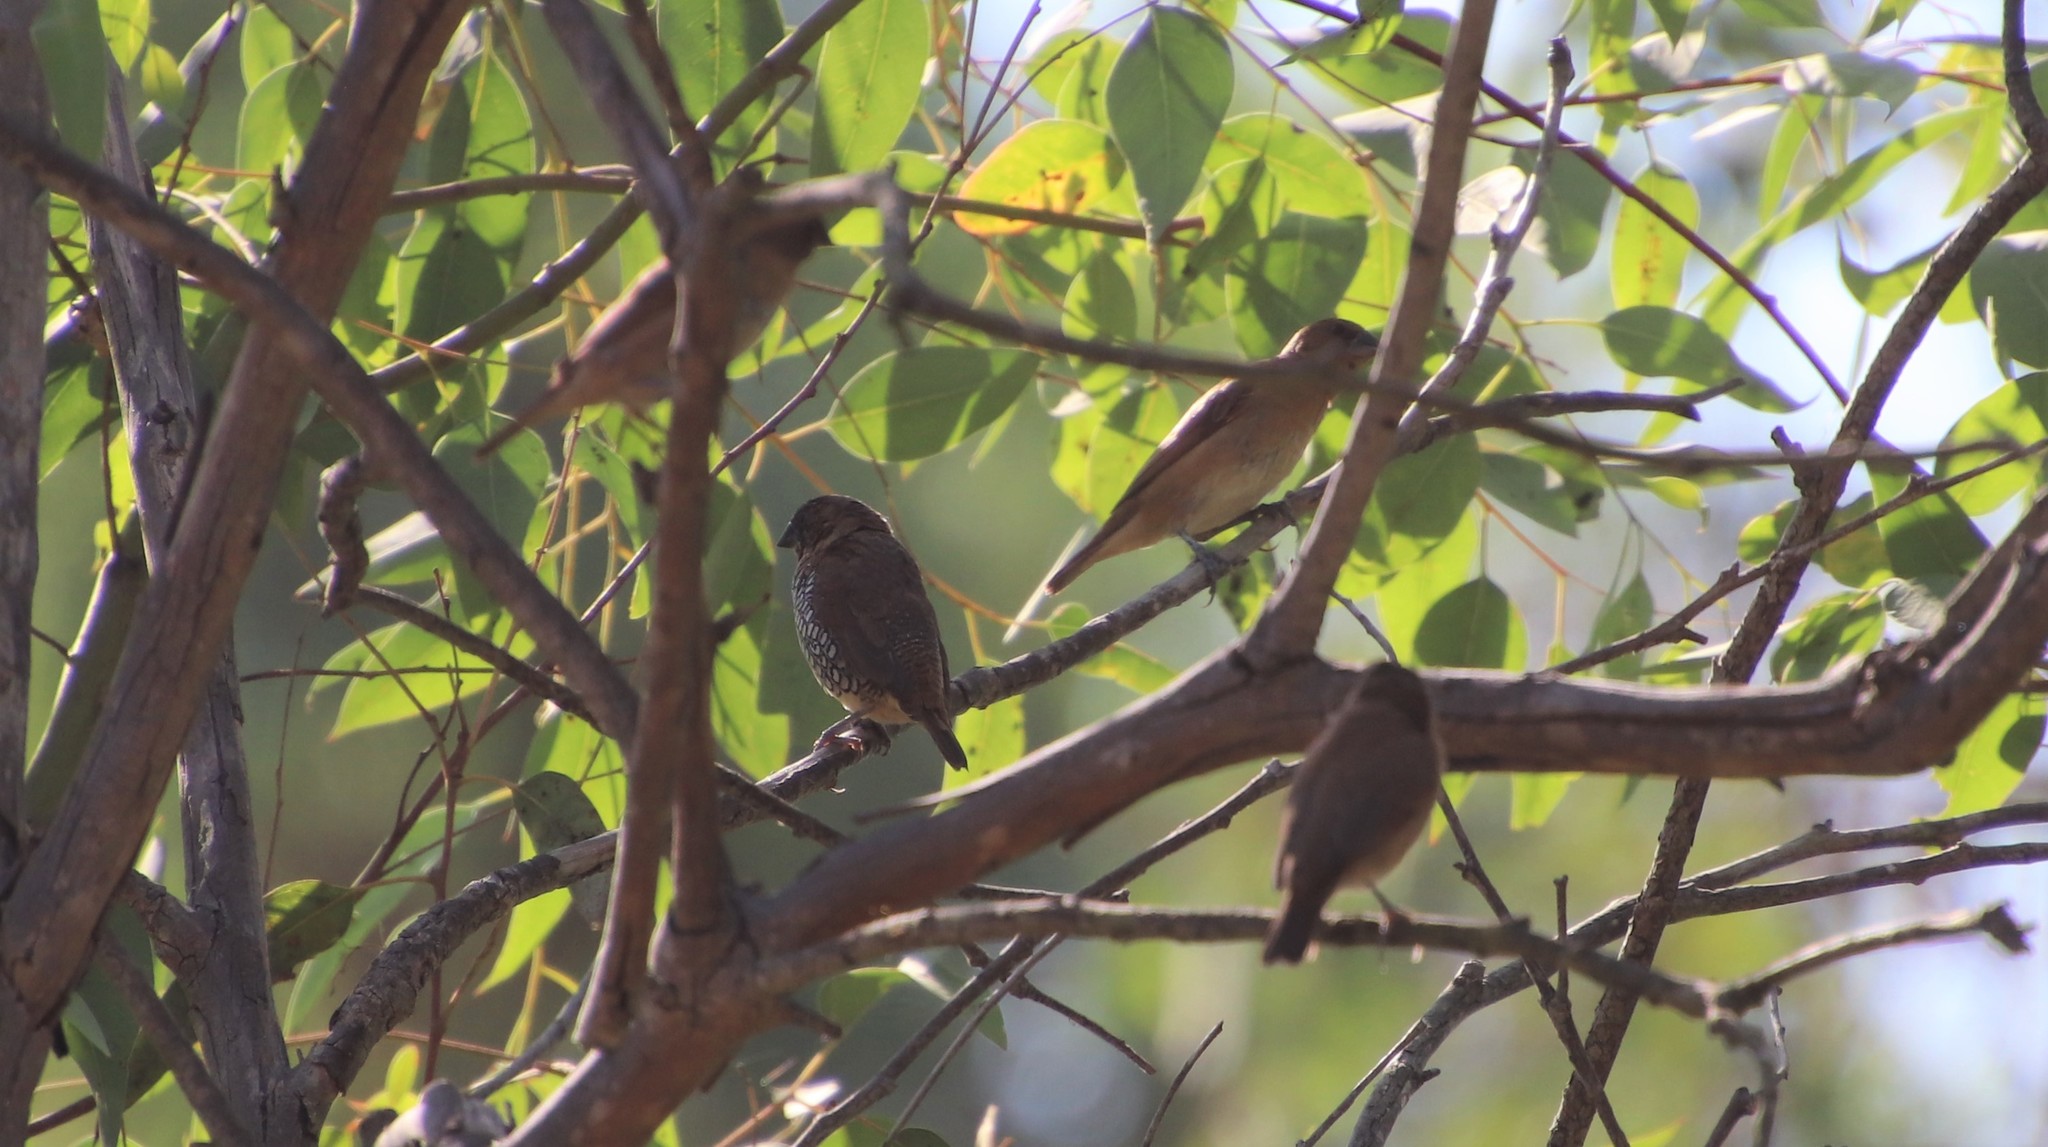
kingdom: Animalia
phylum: Chordata
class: Aves
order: Passeriformes
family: Estrildidae
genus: Lonchura
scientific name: Lonchura punctulata
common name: Scaly-breasted munia
